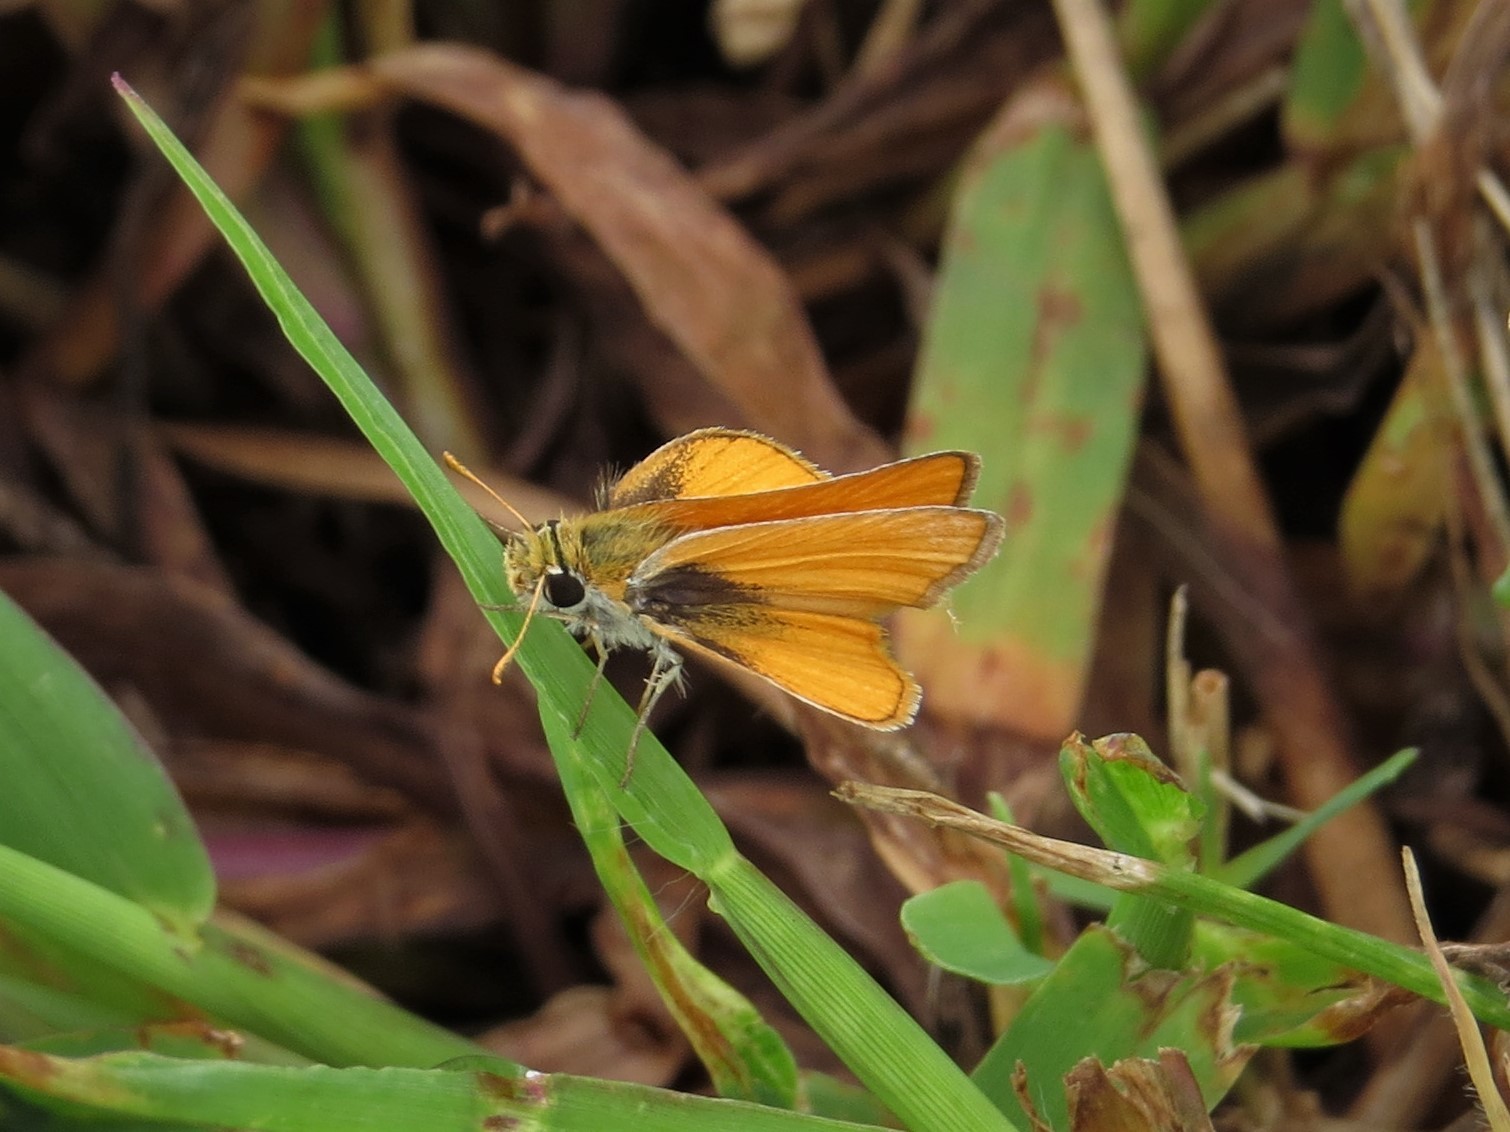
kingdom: Animalia
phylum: Arthropoda
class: Insecta
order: Lepidoptera
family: Hesperiidae
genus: Copaeodes
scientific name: Copaeodes minima
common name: Southern skipperling
